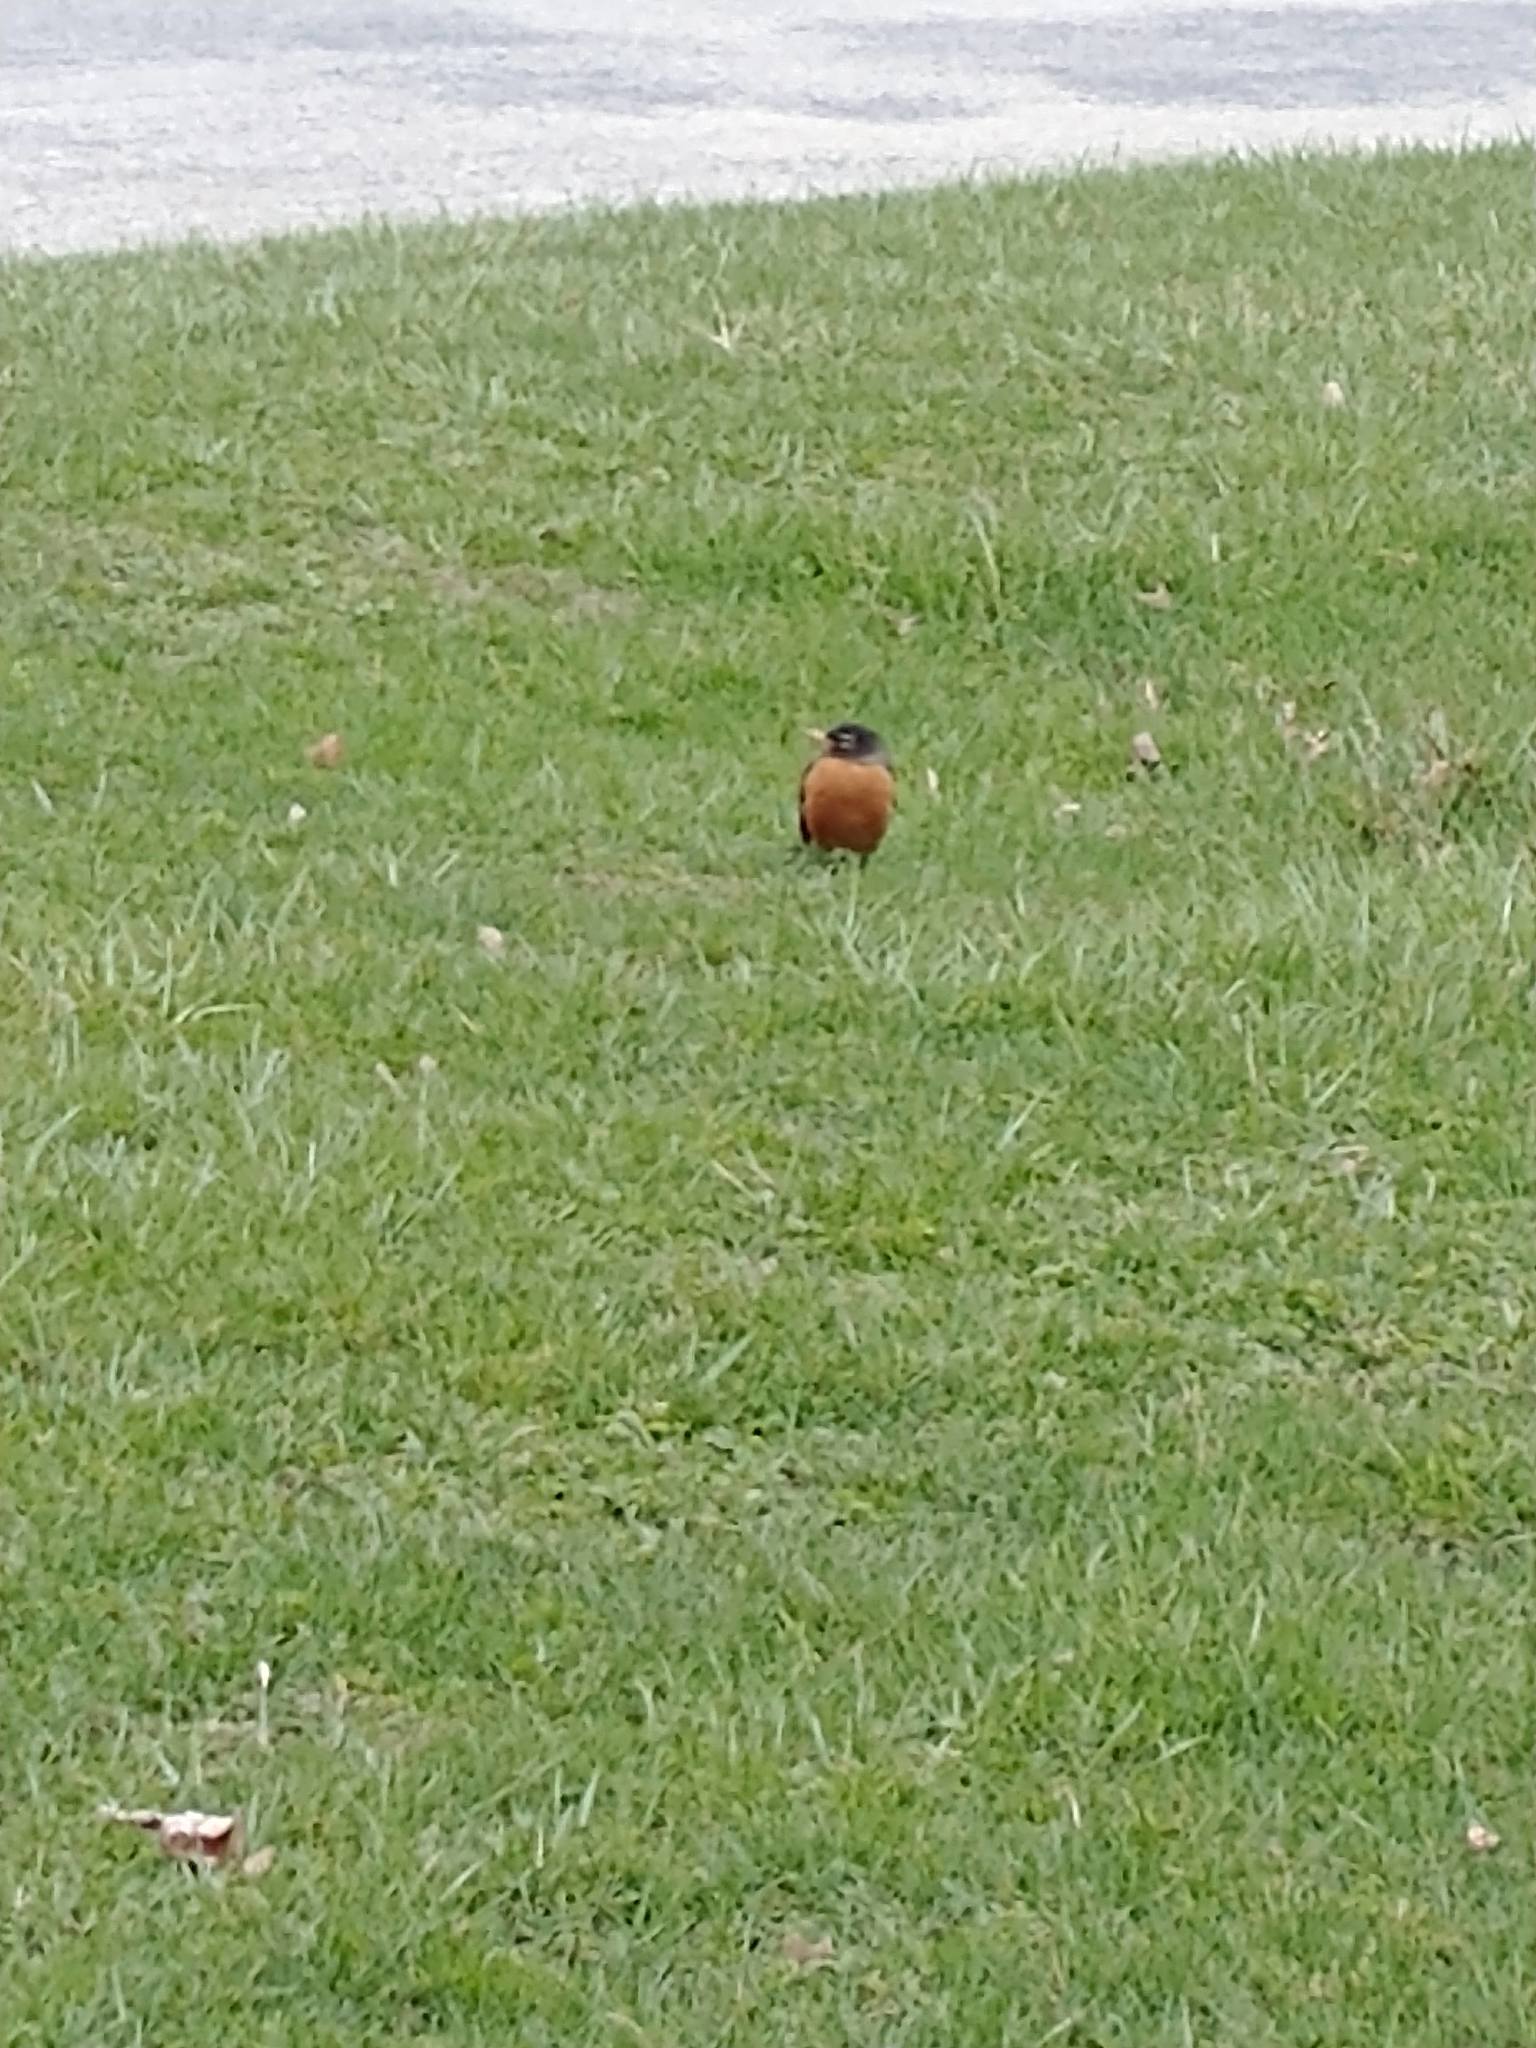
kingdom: Animalia
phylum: Chordata
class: Aves
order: Passeriformes
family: Turdidae
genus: Turdus
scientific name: Turdus migratorius
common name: American robin
